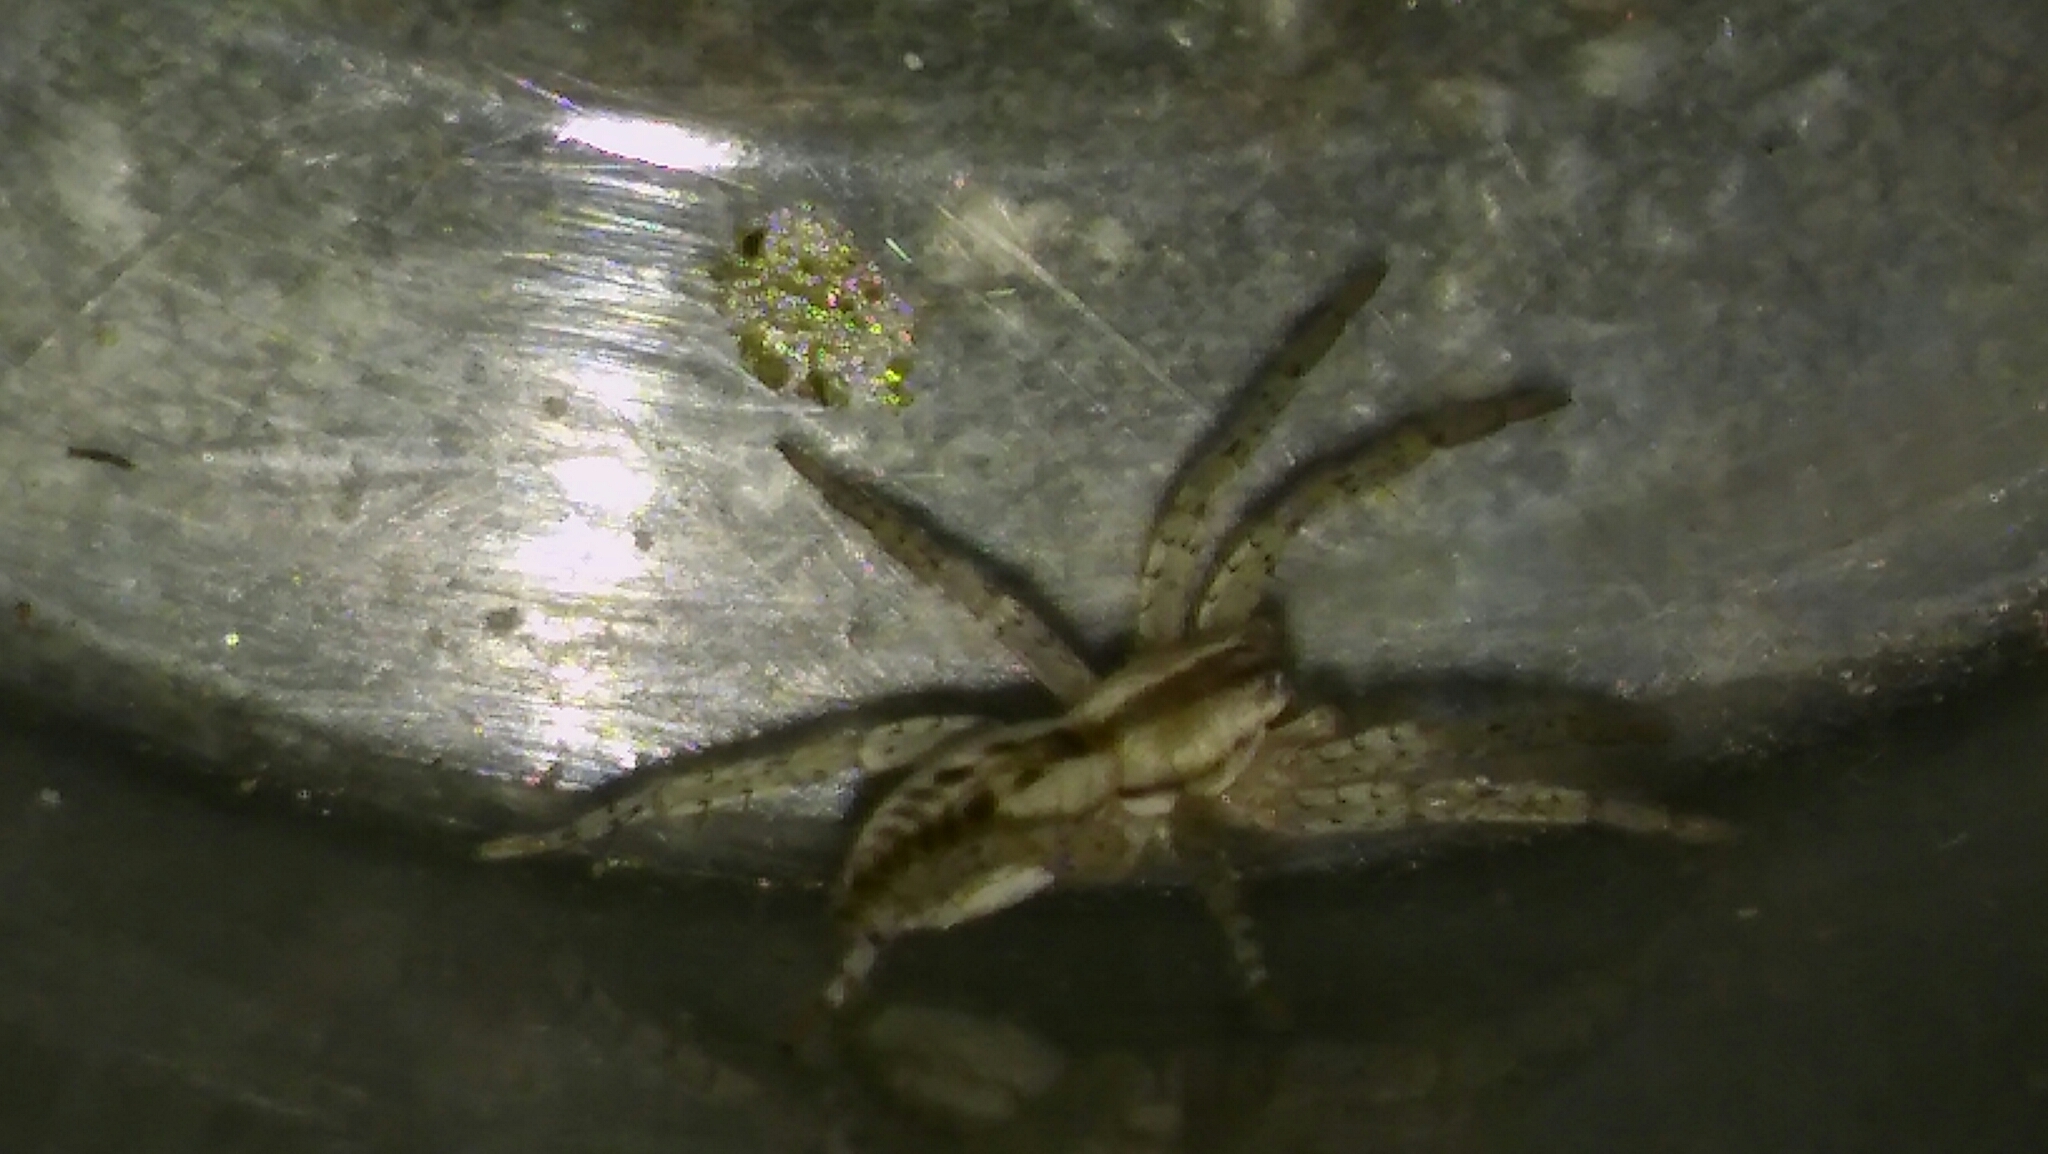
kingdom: Animalia
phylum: Arthropoda
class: Arachnida
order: Araneae
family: Anyphaenidae
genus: Arachosia
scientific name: Arachosia praesignis
